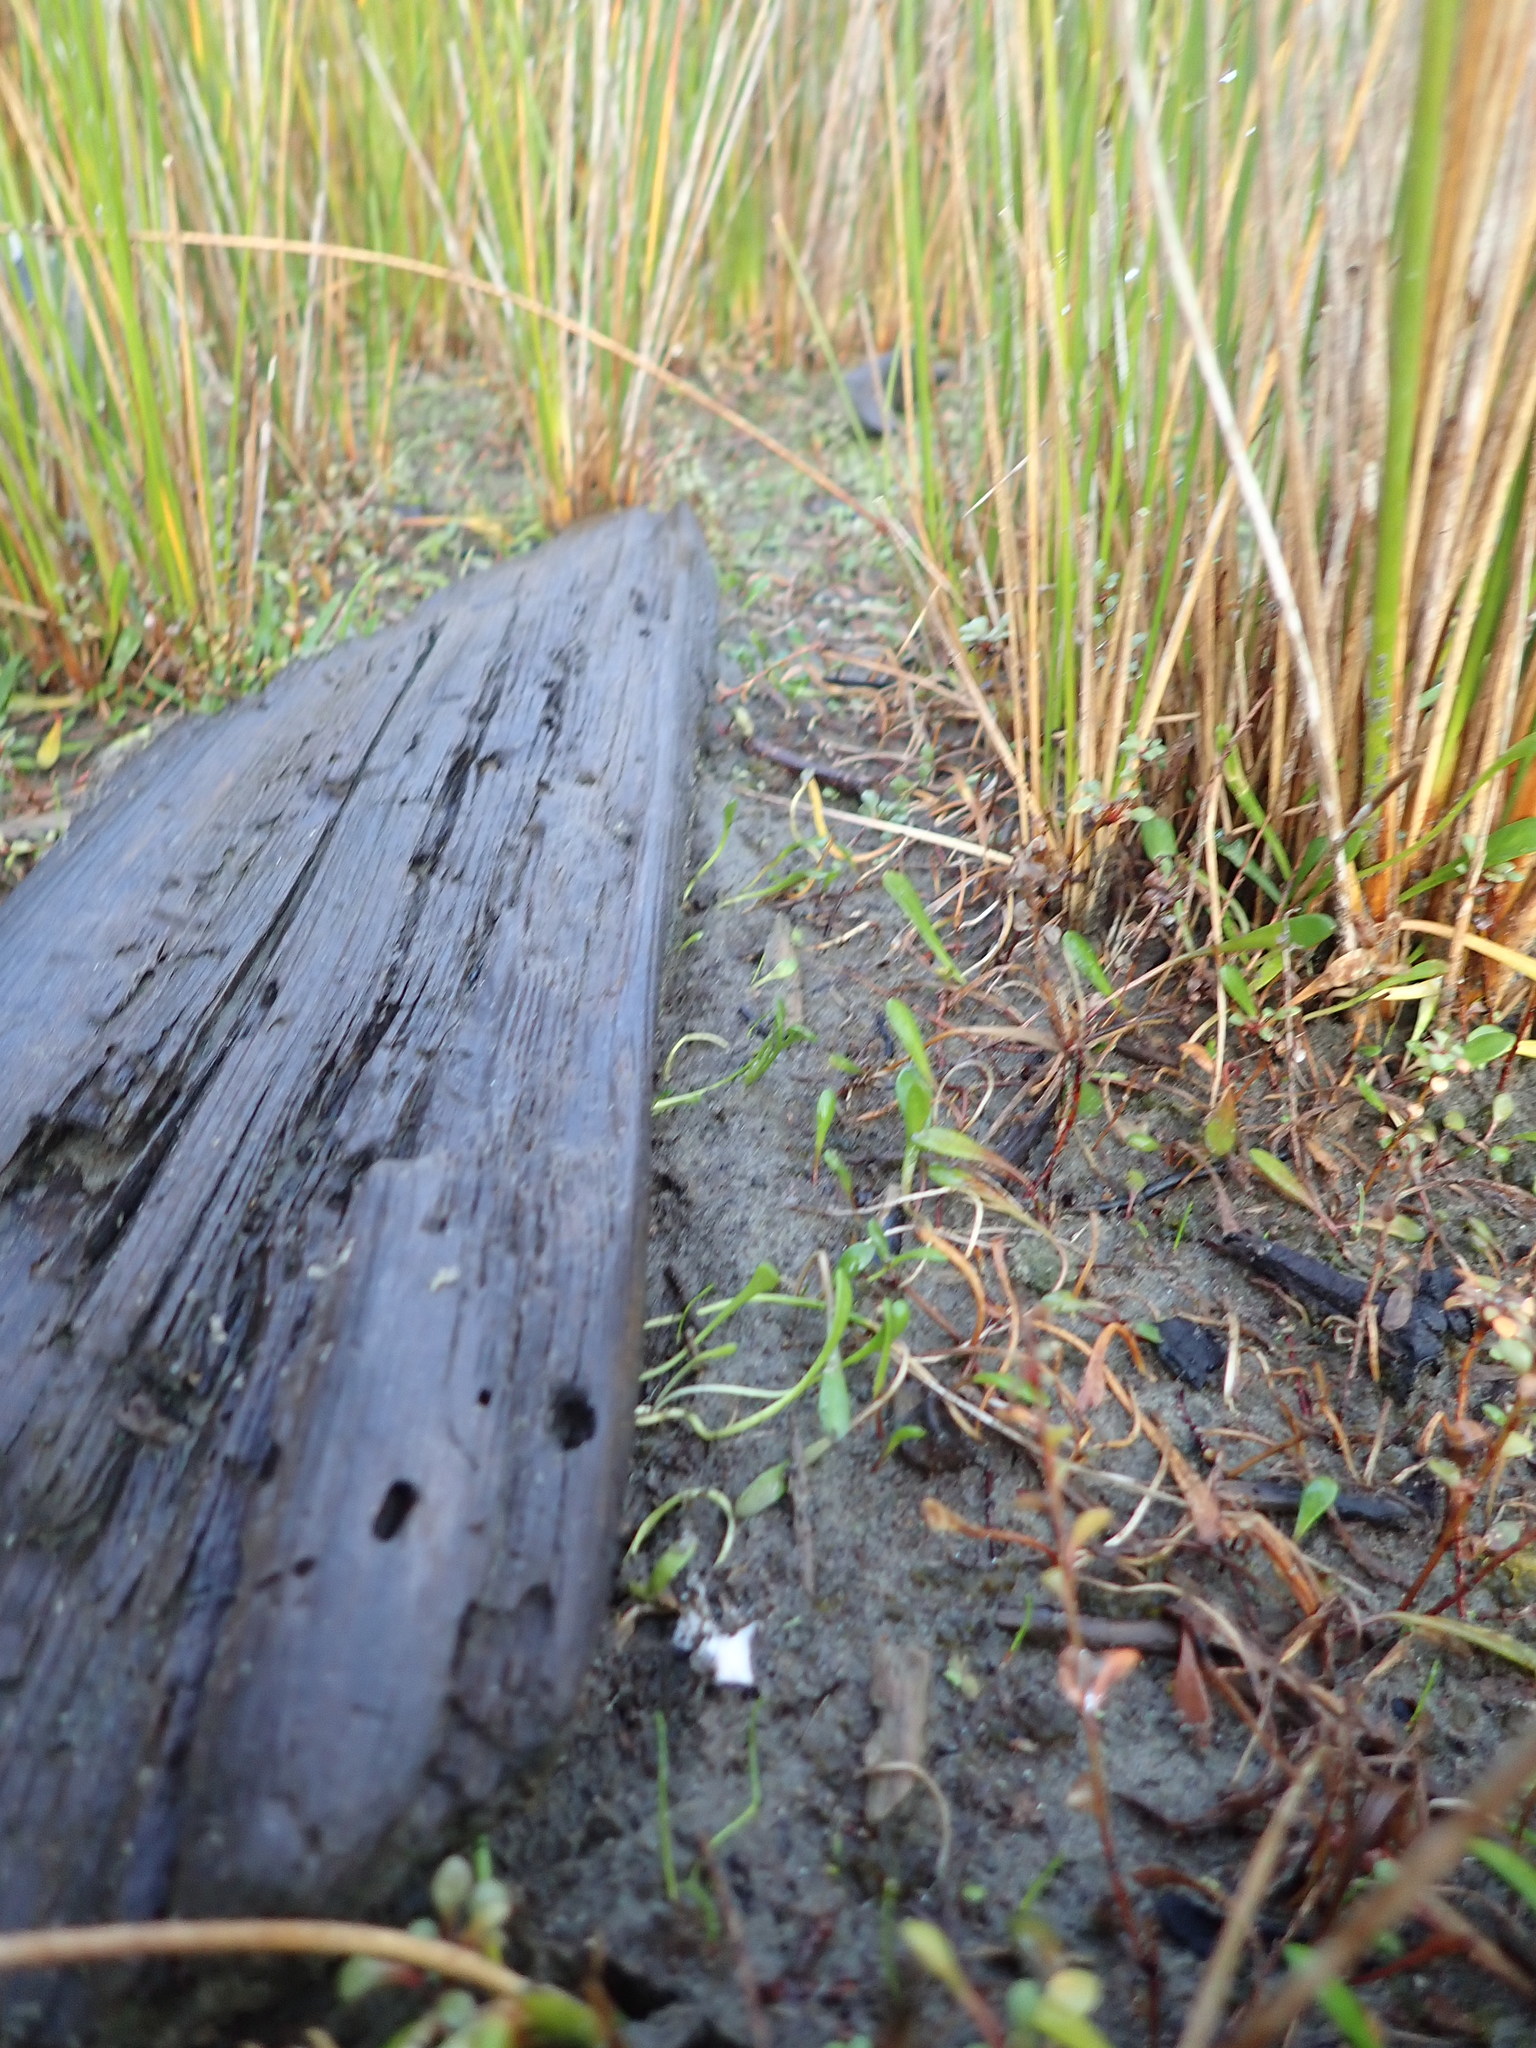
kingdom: Plantae
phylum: Tracheophyta
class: Magnoliopsida
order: Asterales
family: Goodeniaceae
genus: Goodenia
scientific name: Goodenia radicans
